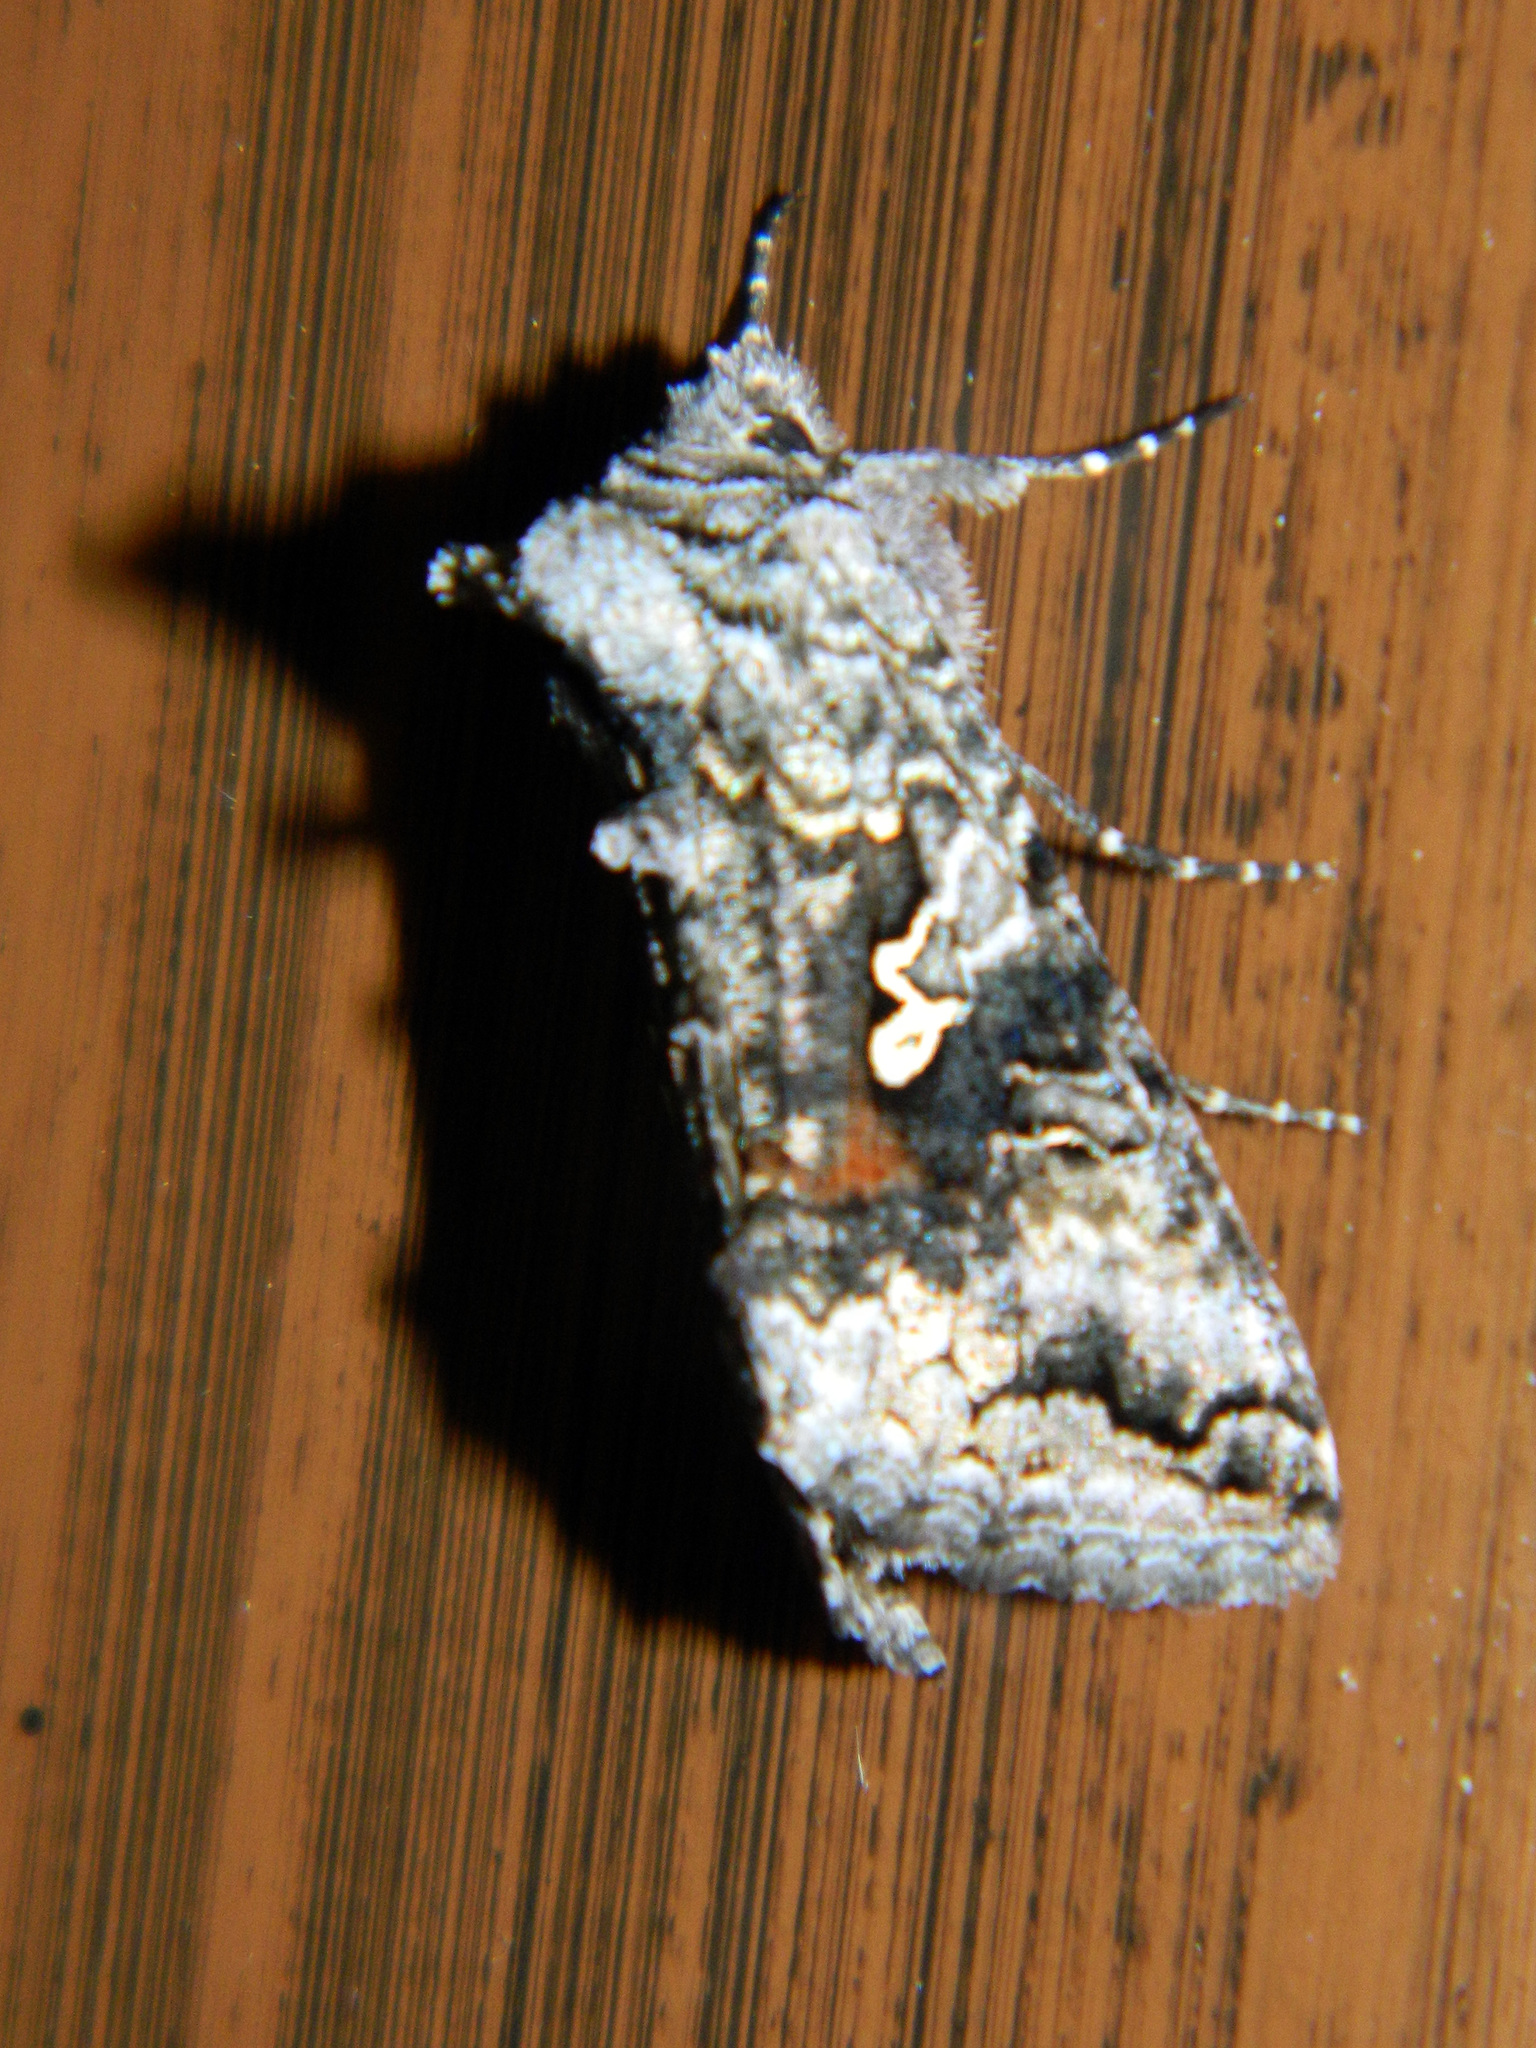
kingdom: Animalia
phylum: Arthropoda
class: Insecta
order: Lepidoptera
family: Noctuidae
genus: Syngrapha
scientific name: Syngrapha altera
